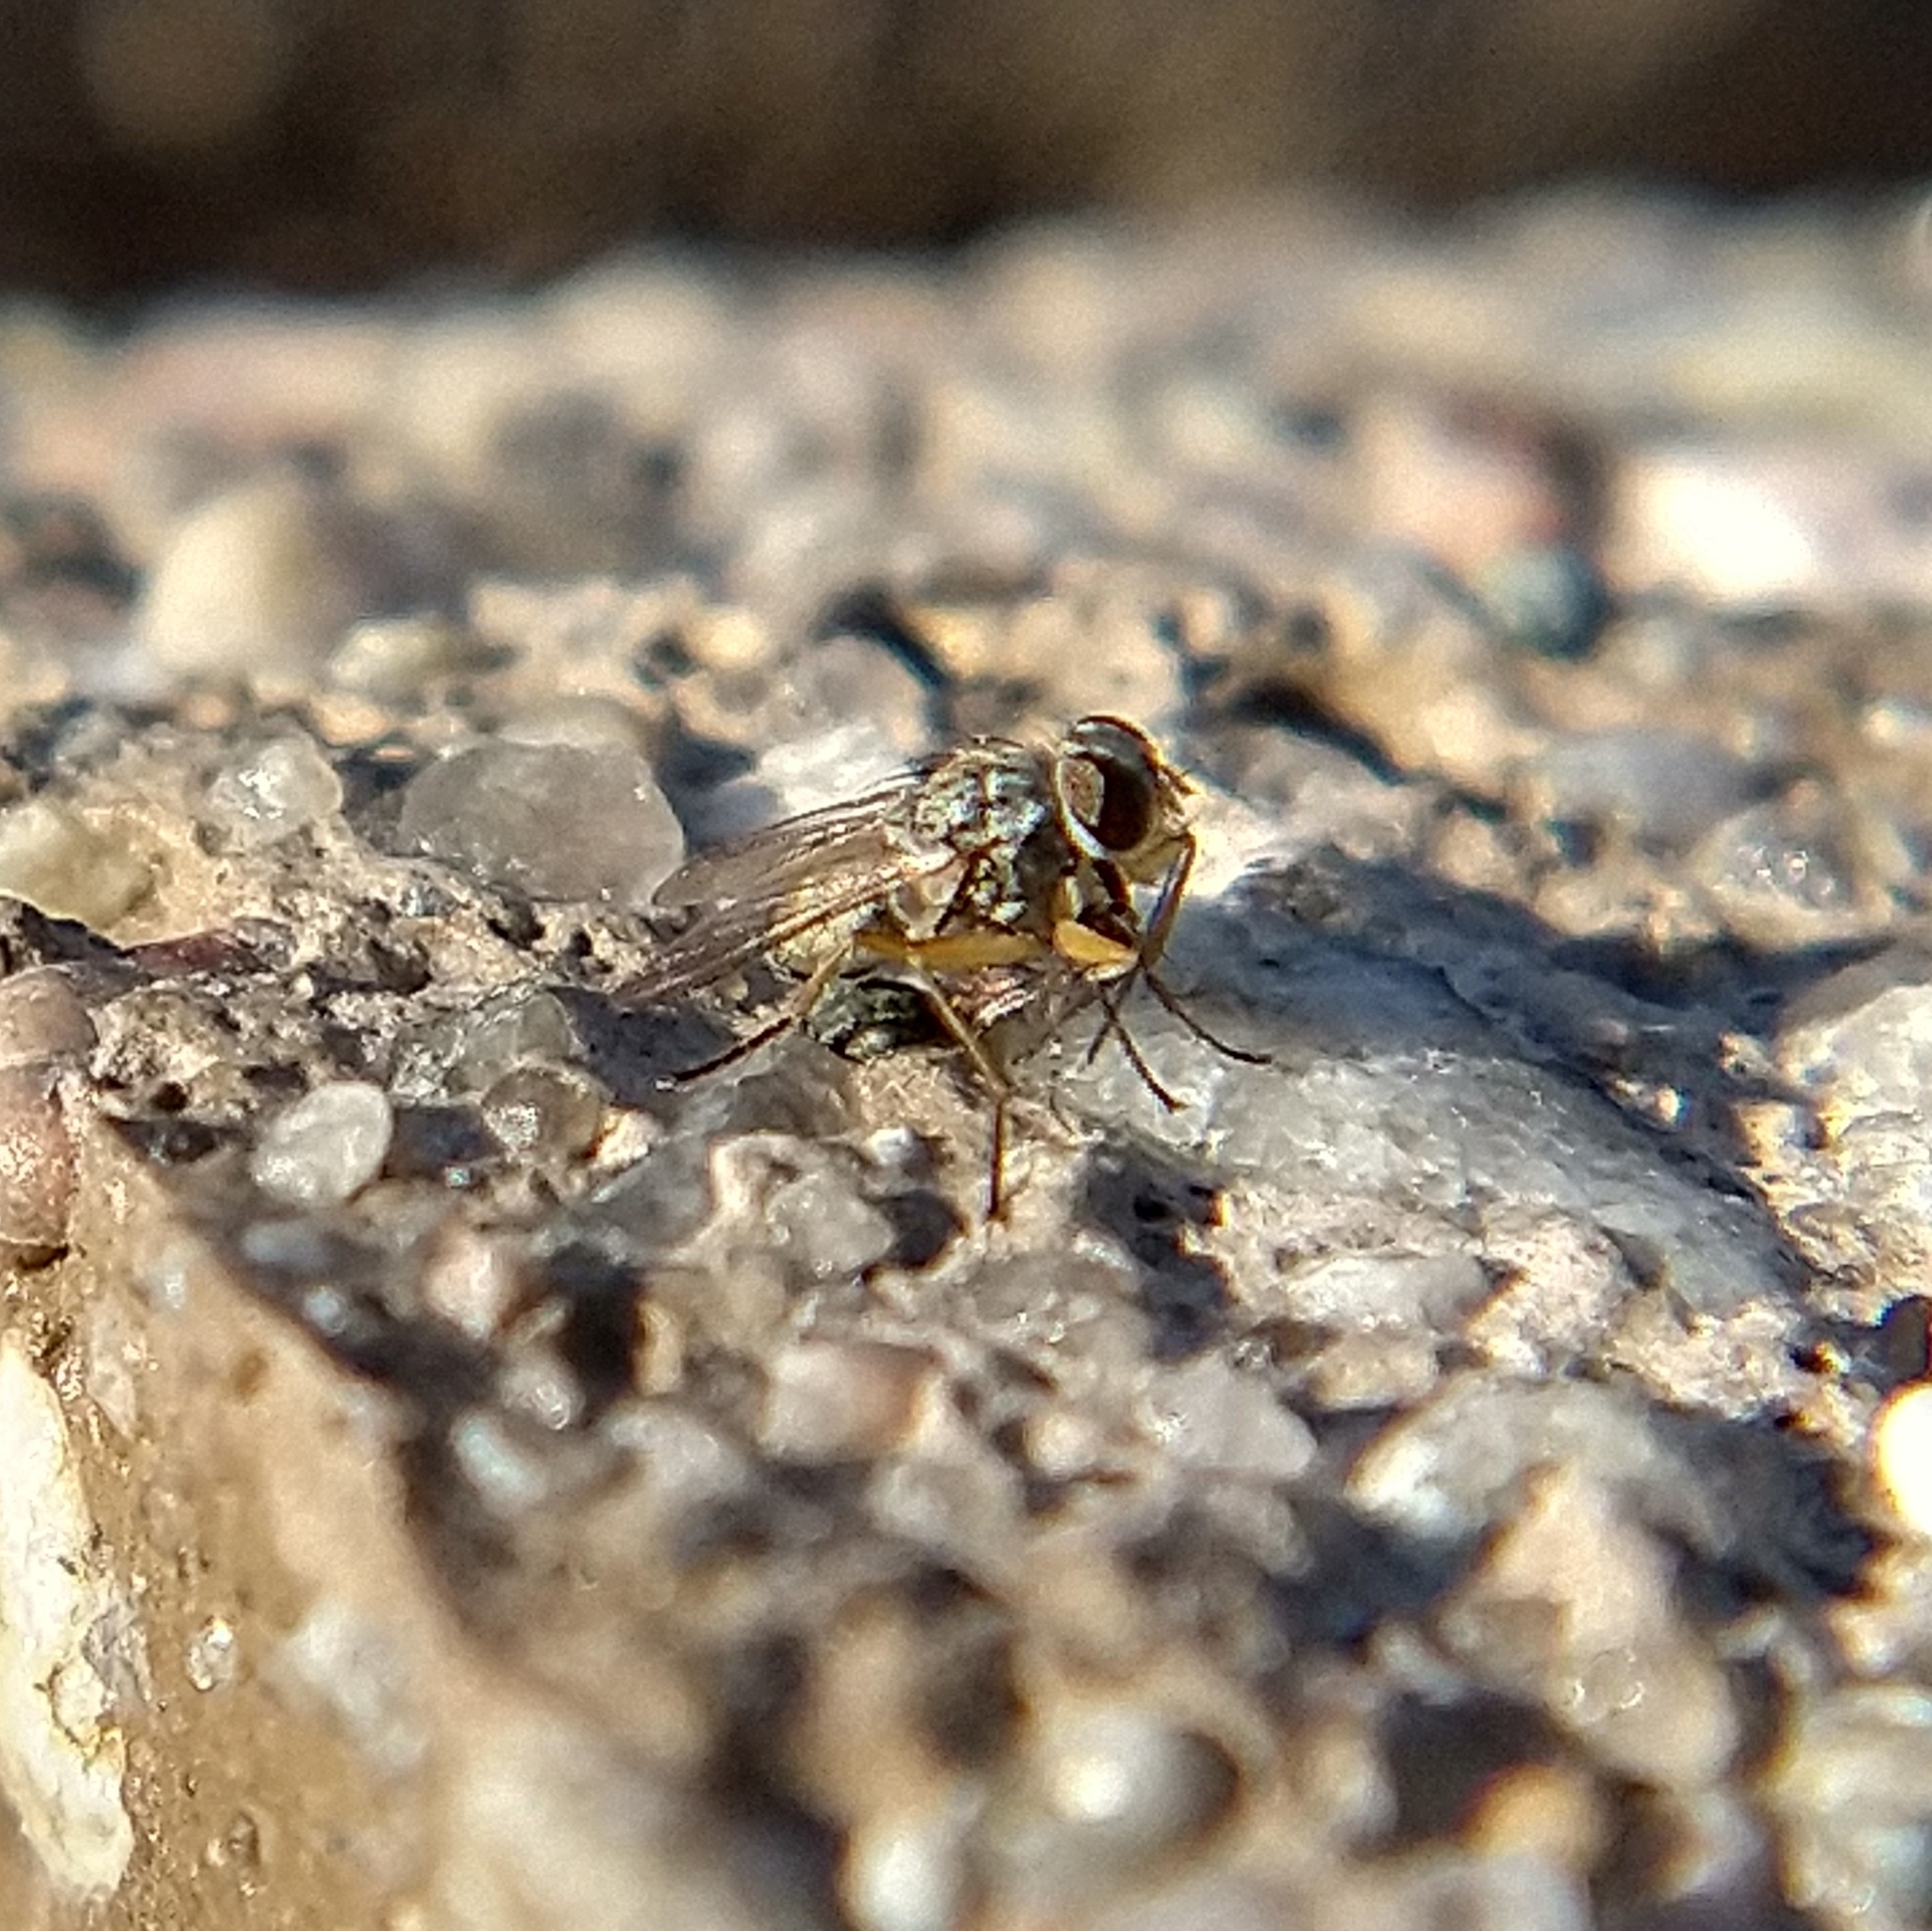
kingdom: Animalia
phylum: Arthropoda
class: Insecta
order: Diptera
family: Muscidae
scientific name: Muscidae
